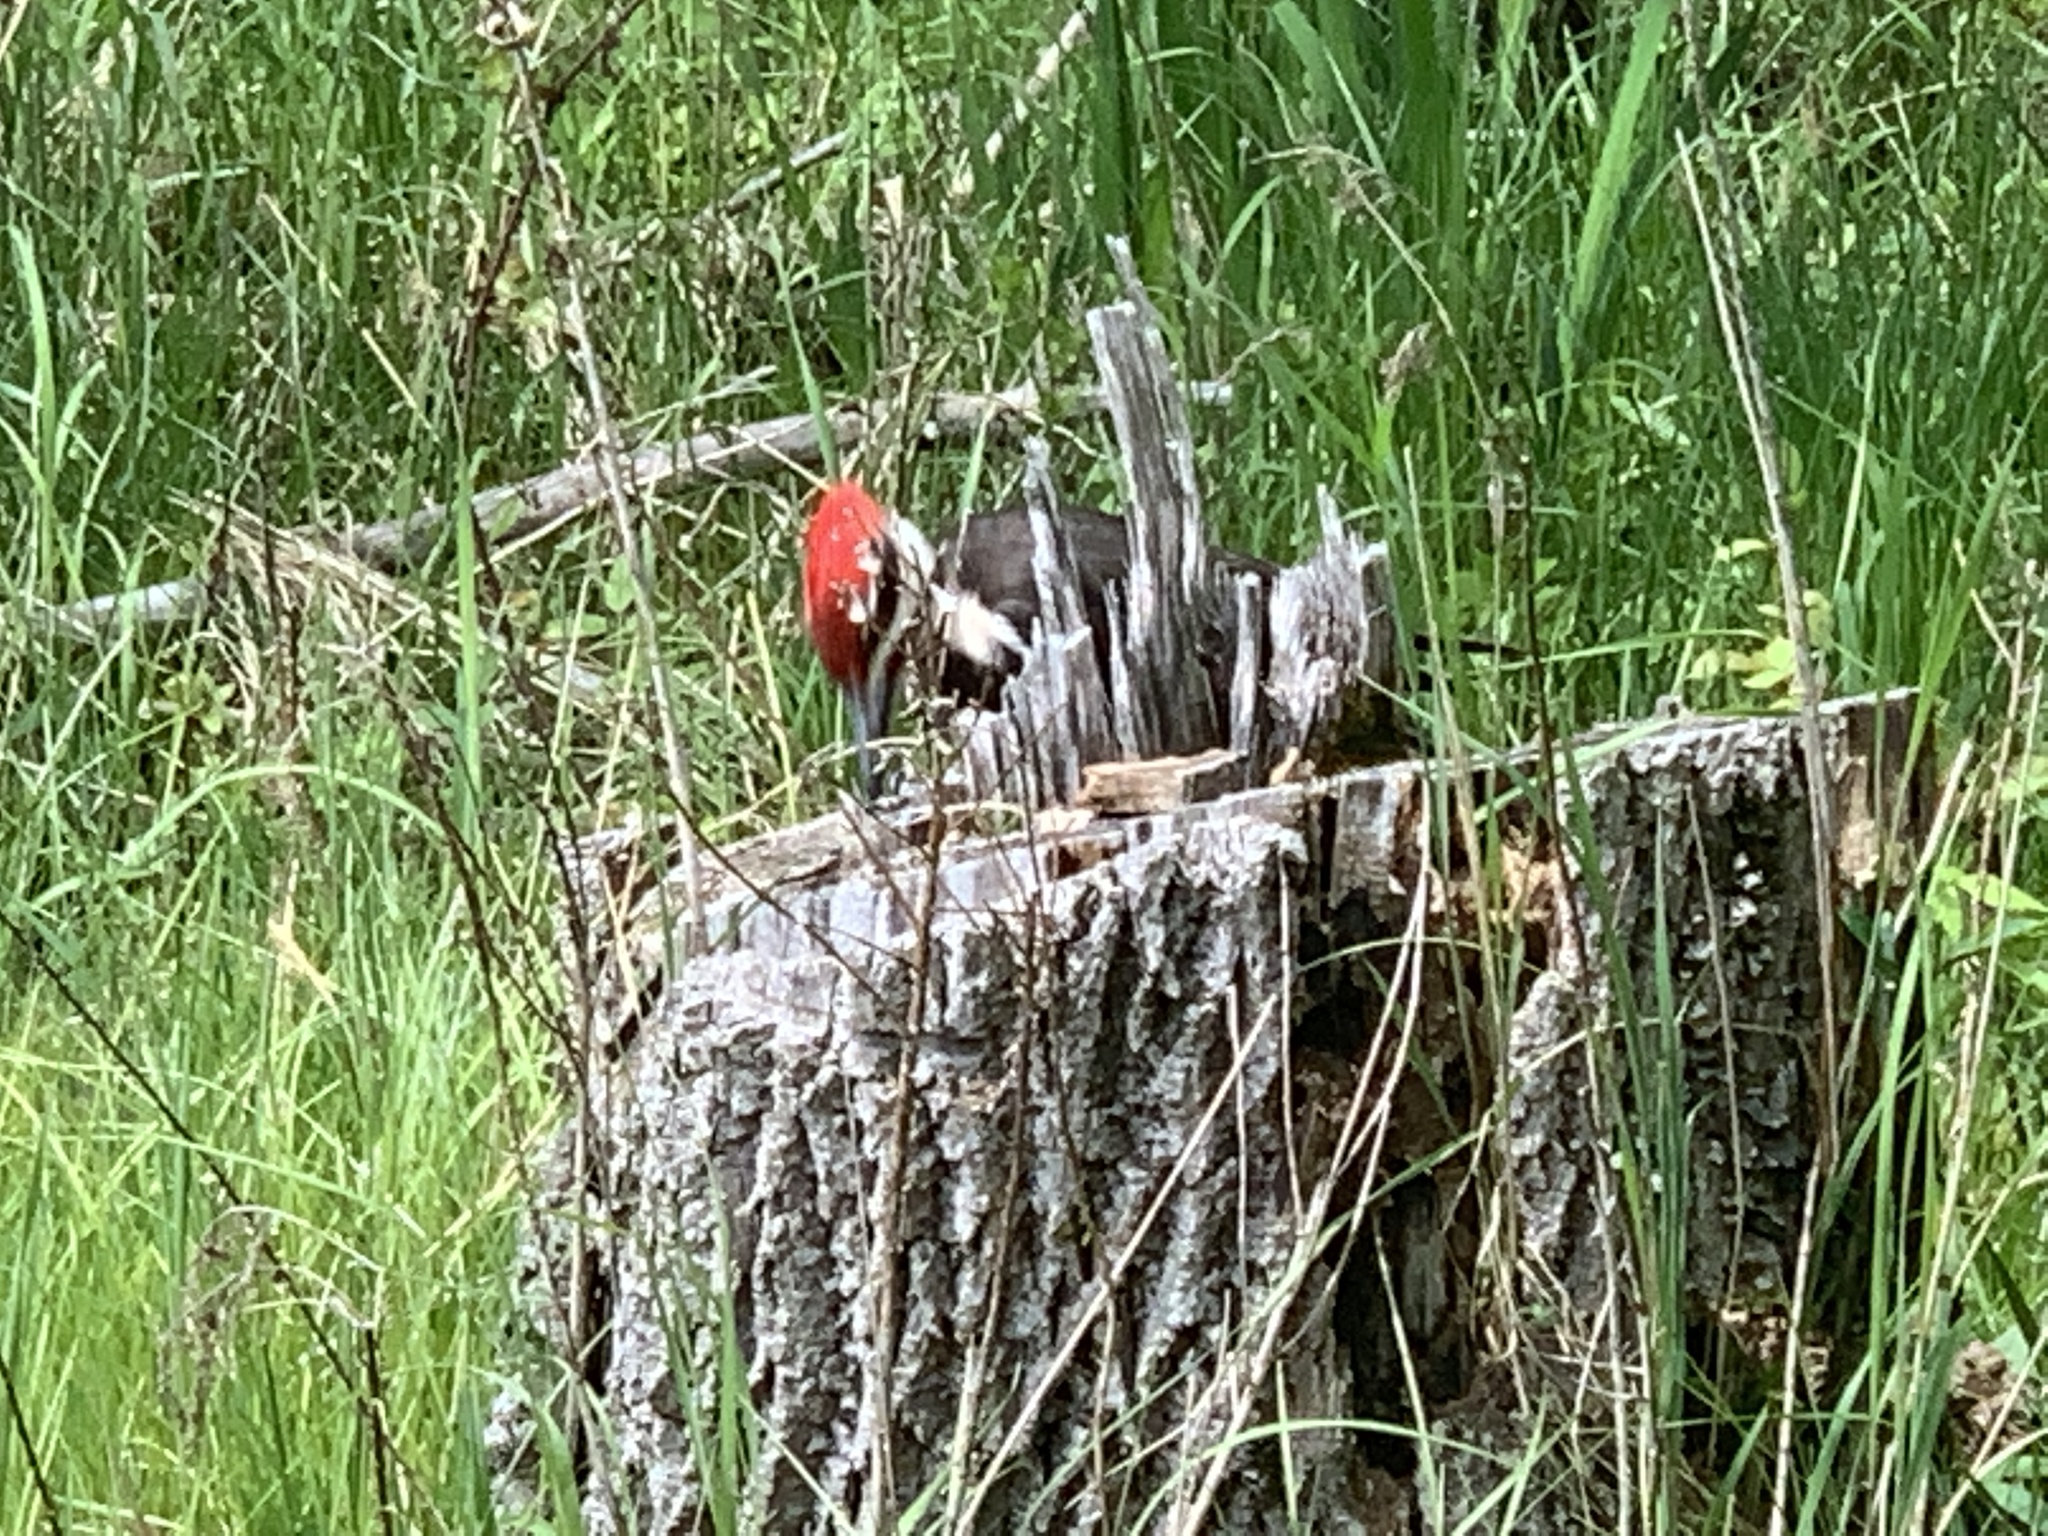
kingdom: Animalia
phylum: Chordata
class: Aves
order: Piciformes
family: Picidae
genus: Dryocopus
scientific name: Dryocopus pileatus
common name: Pileated woodpecker
